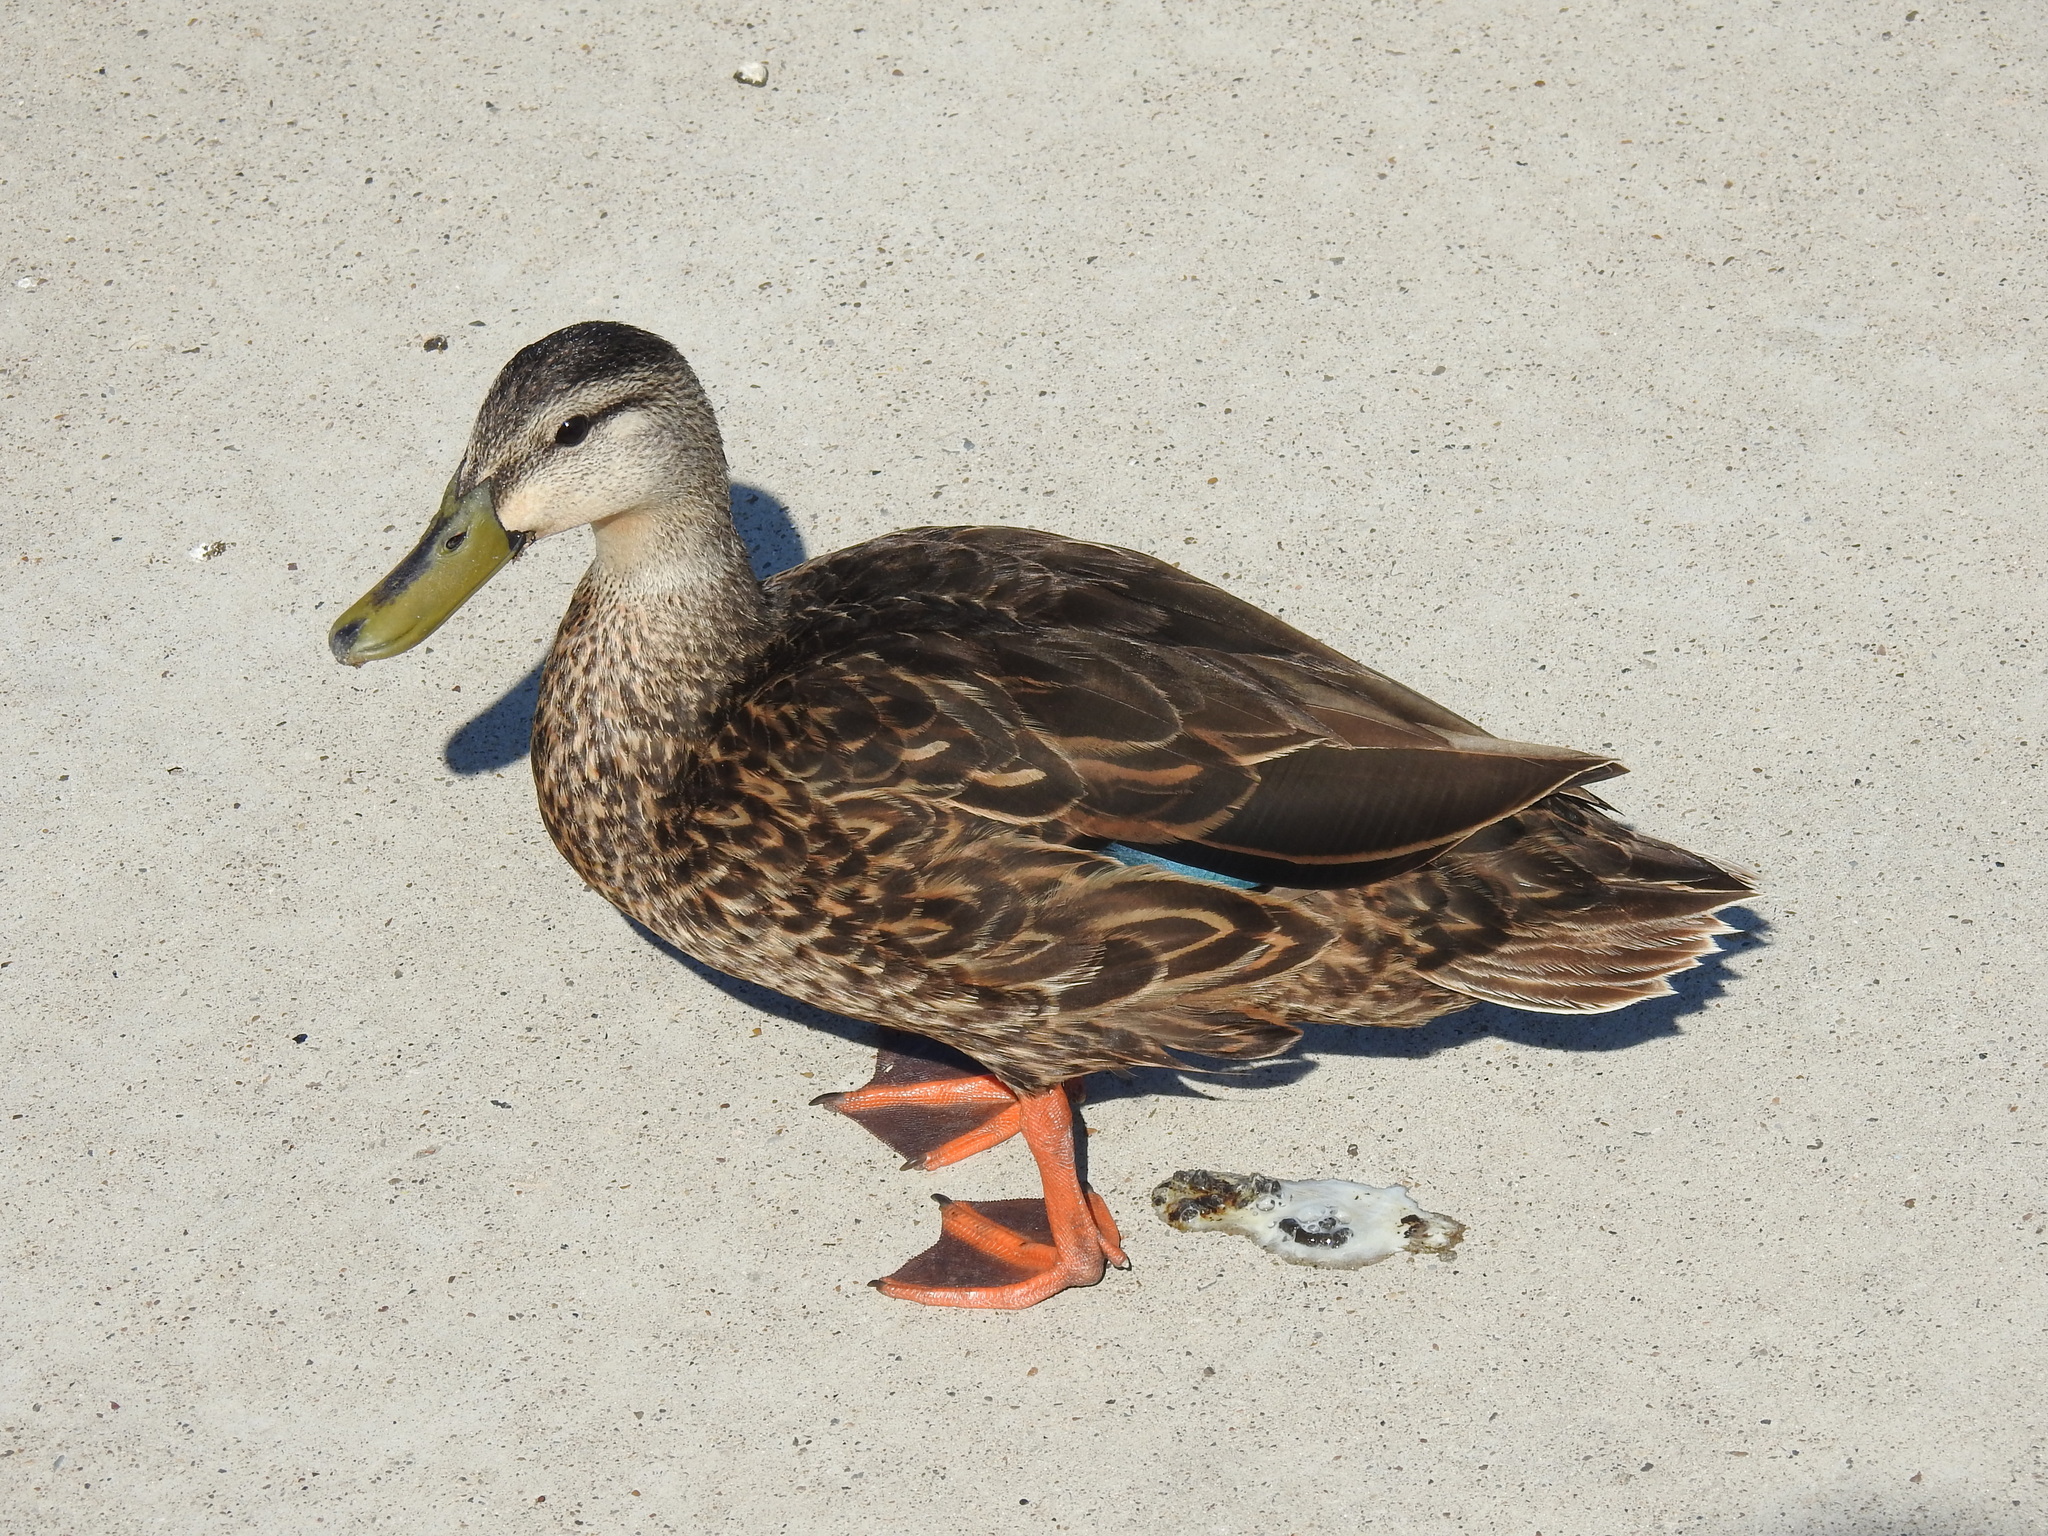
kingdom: Animalia
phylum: Chordata
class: Aves
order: Anseriformes
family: Anatidae
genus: Anas
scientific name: Anas fulvigula
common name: Mottled duck
